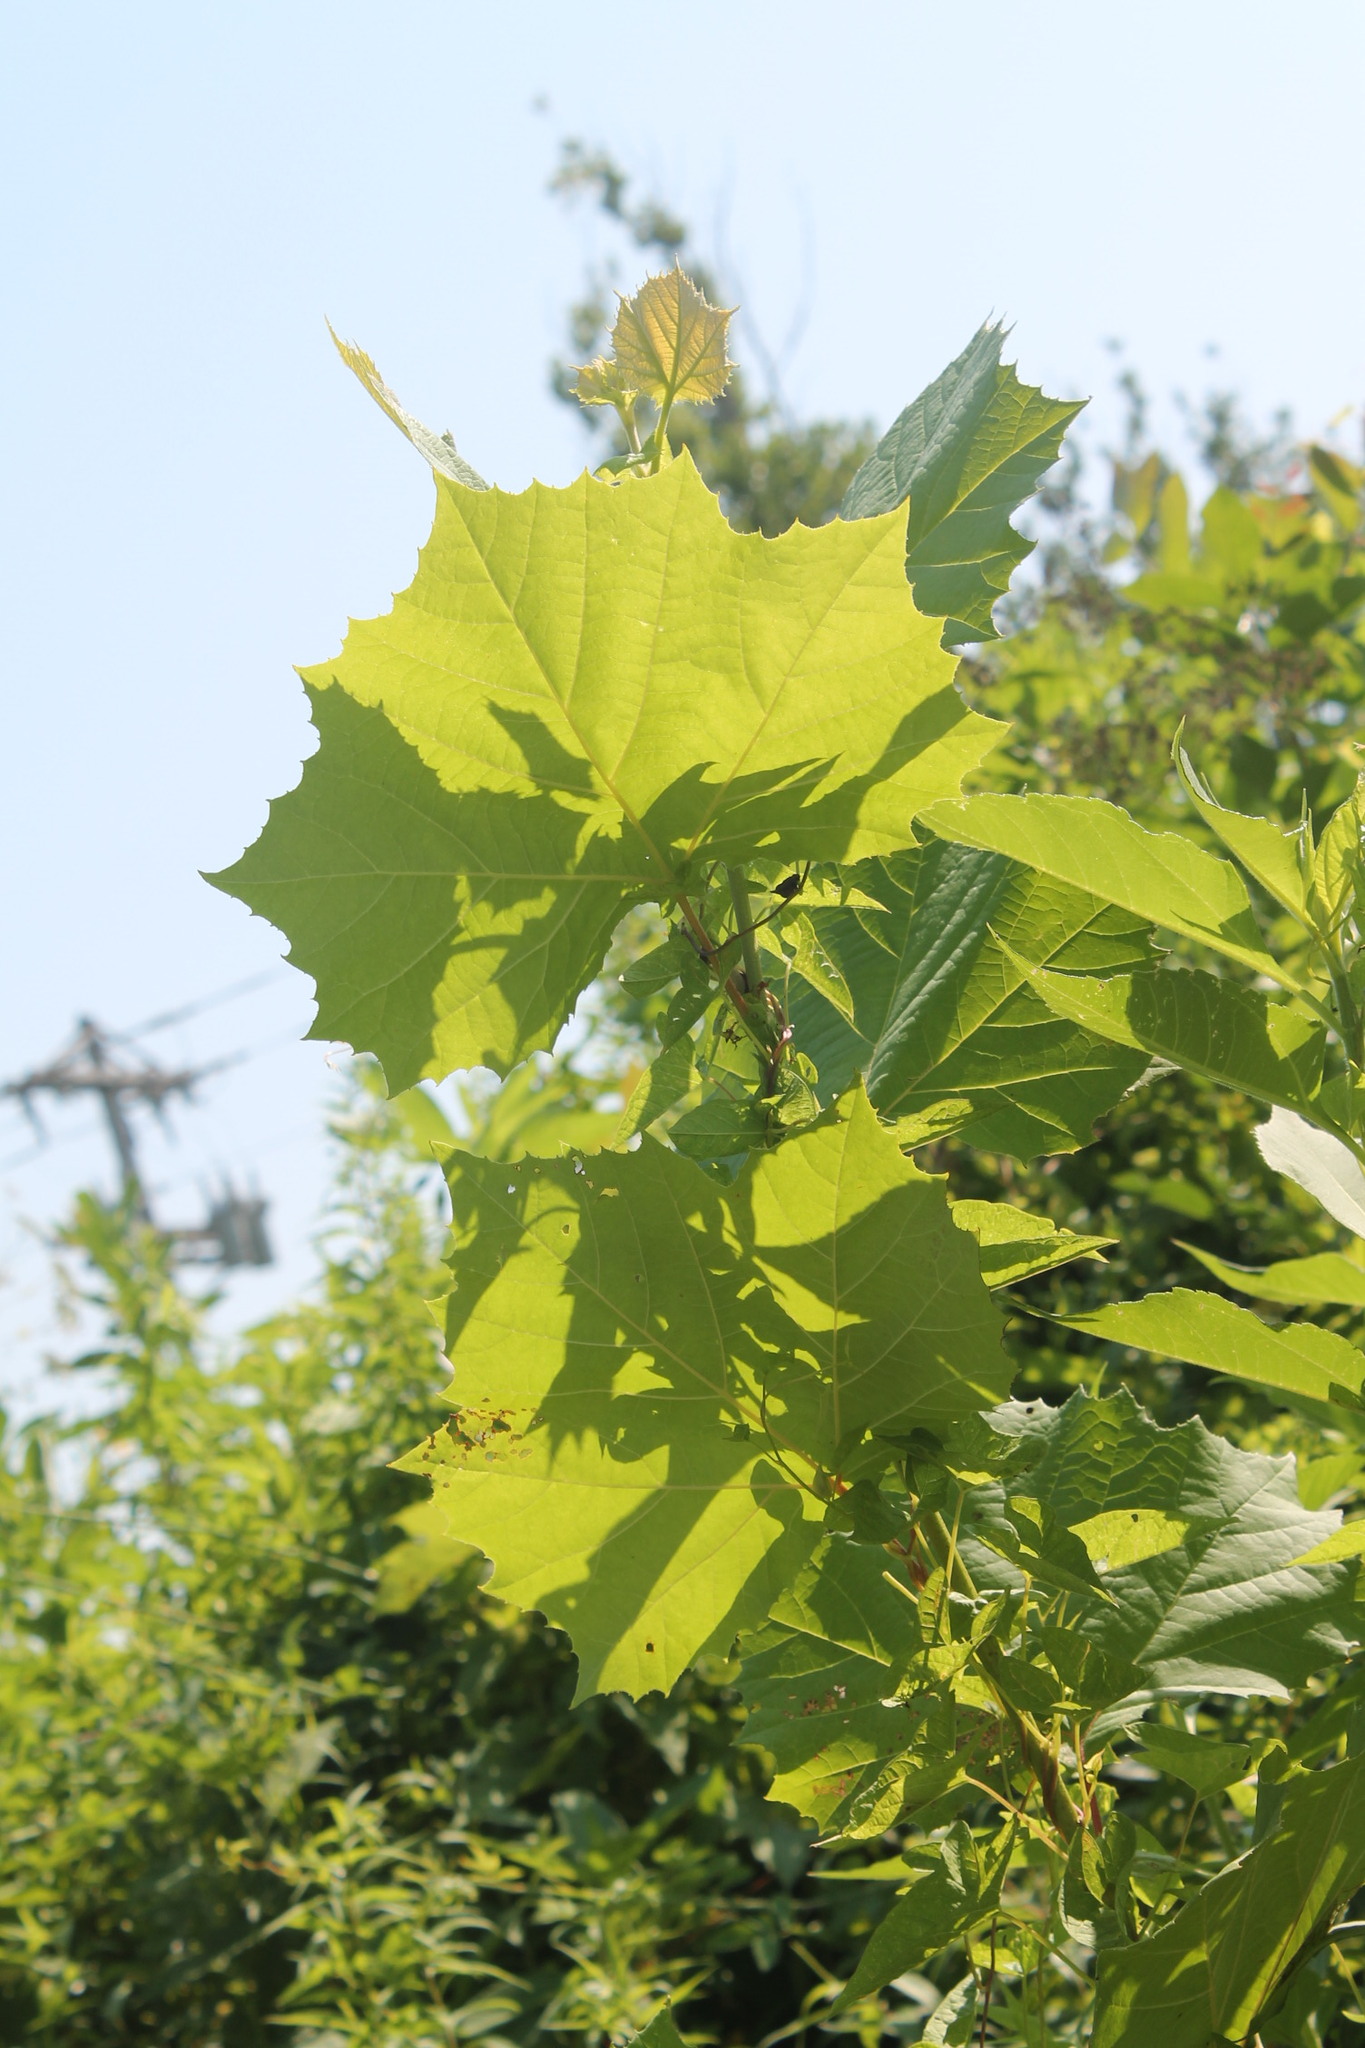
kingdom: Plantae
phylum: Tracheophyta
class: Magnoliopsida
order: Proteales
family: Platanaceae
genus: Platanus
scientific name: Platanus occidentalis
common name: American sycamore
